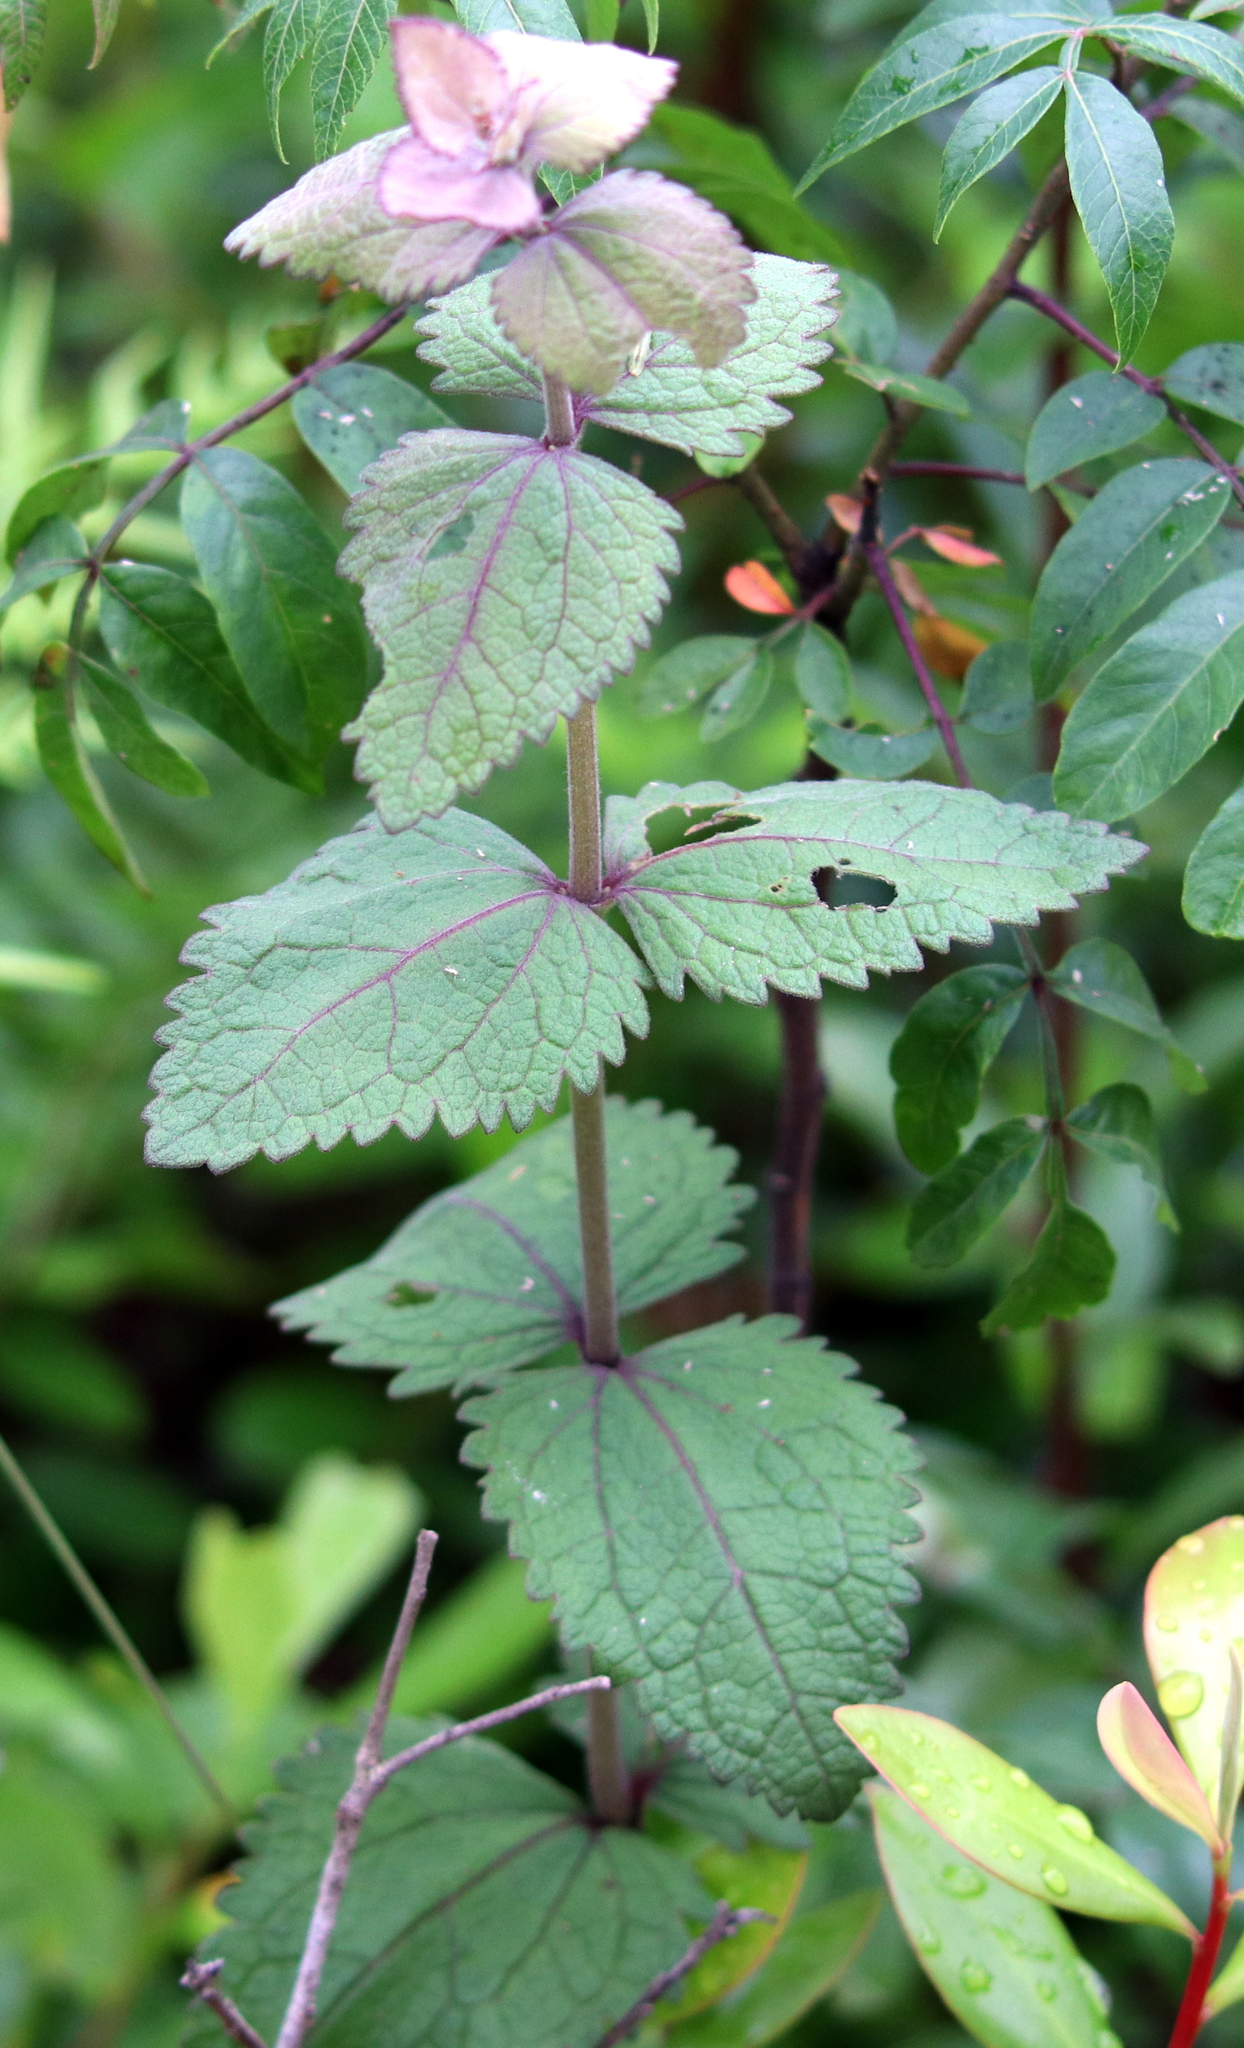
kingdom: Plantae
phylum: Tracheophyta
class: Magnoliopsida
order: Asterales
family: Asteraceae
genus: Eupatorium
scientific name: Eupatorium rotundifolium
